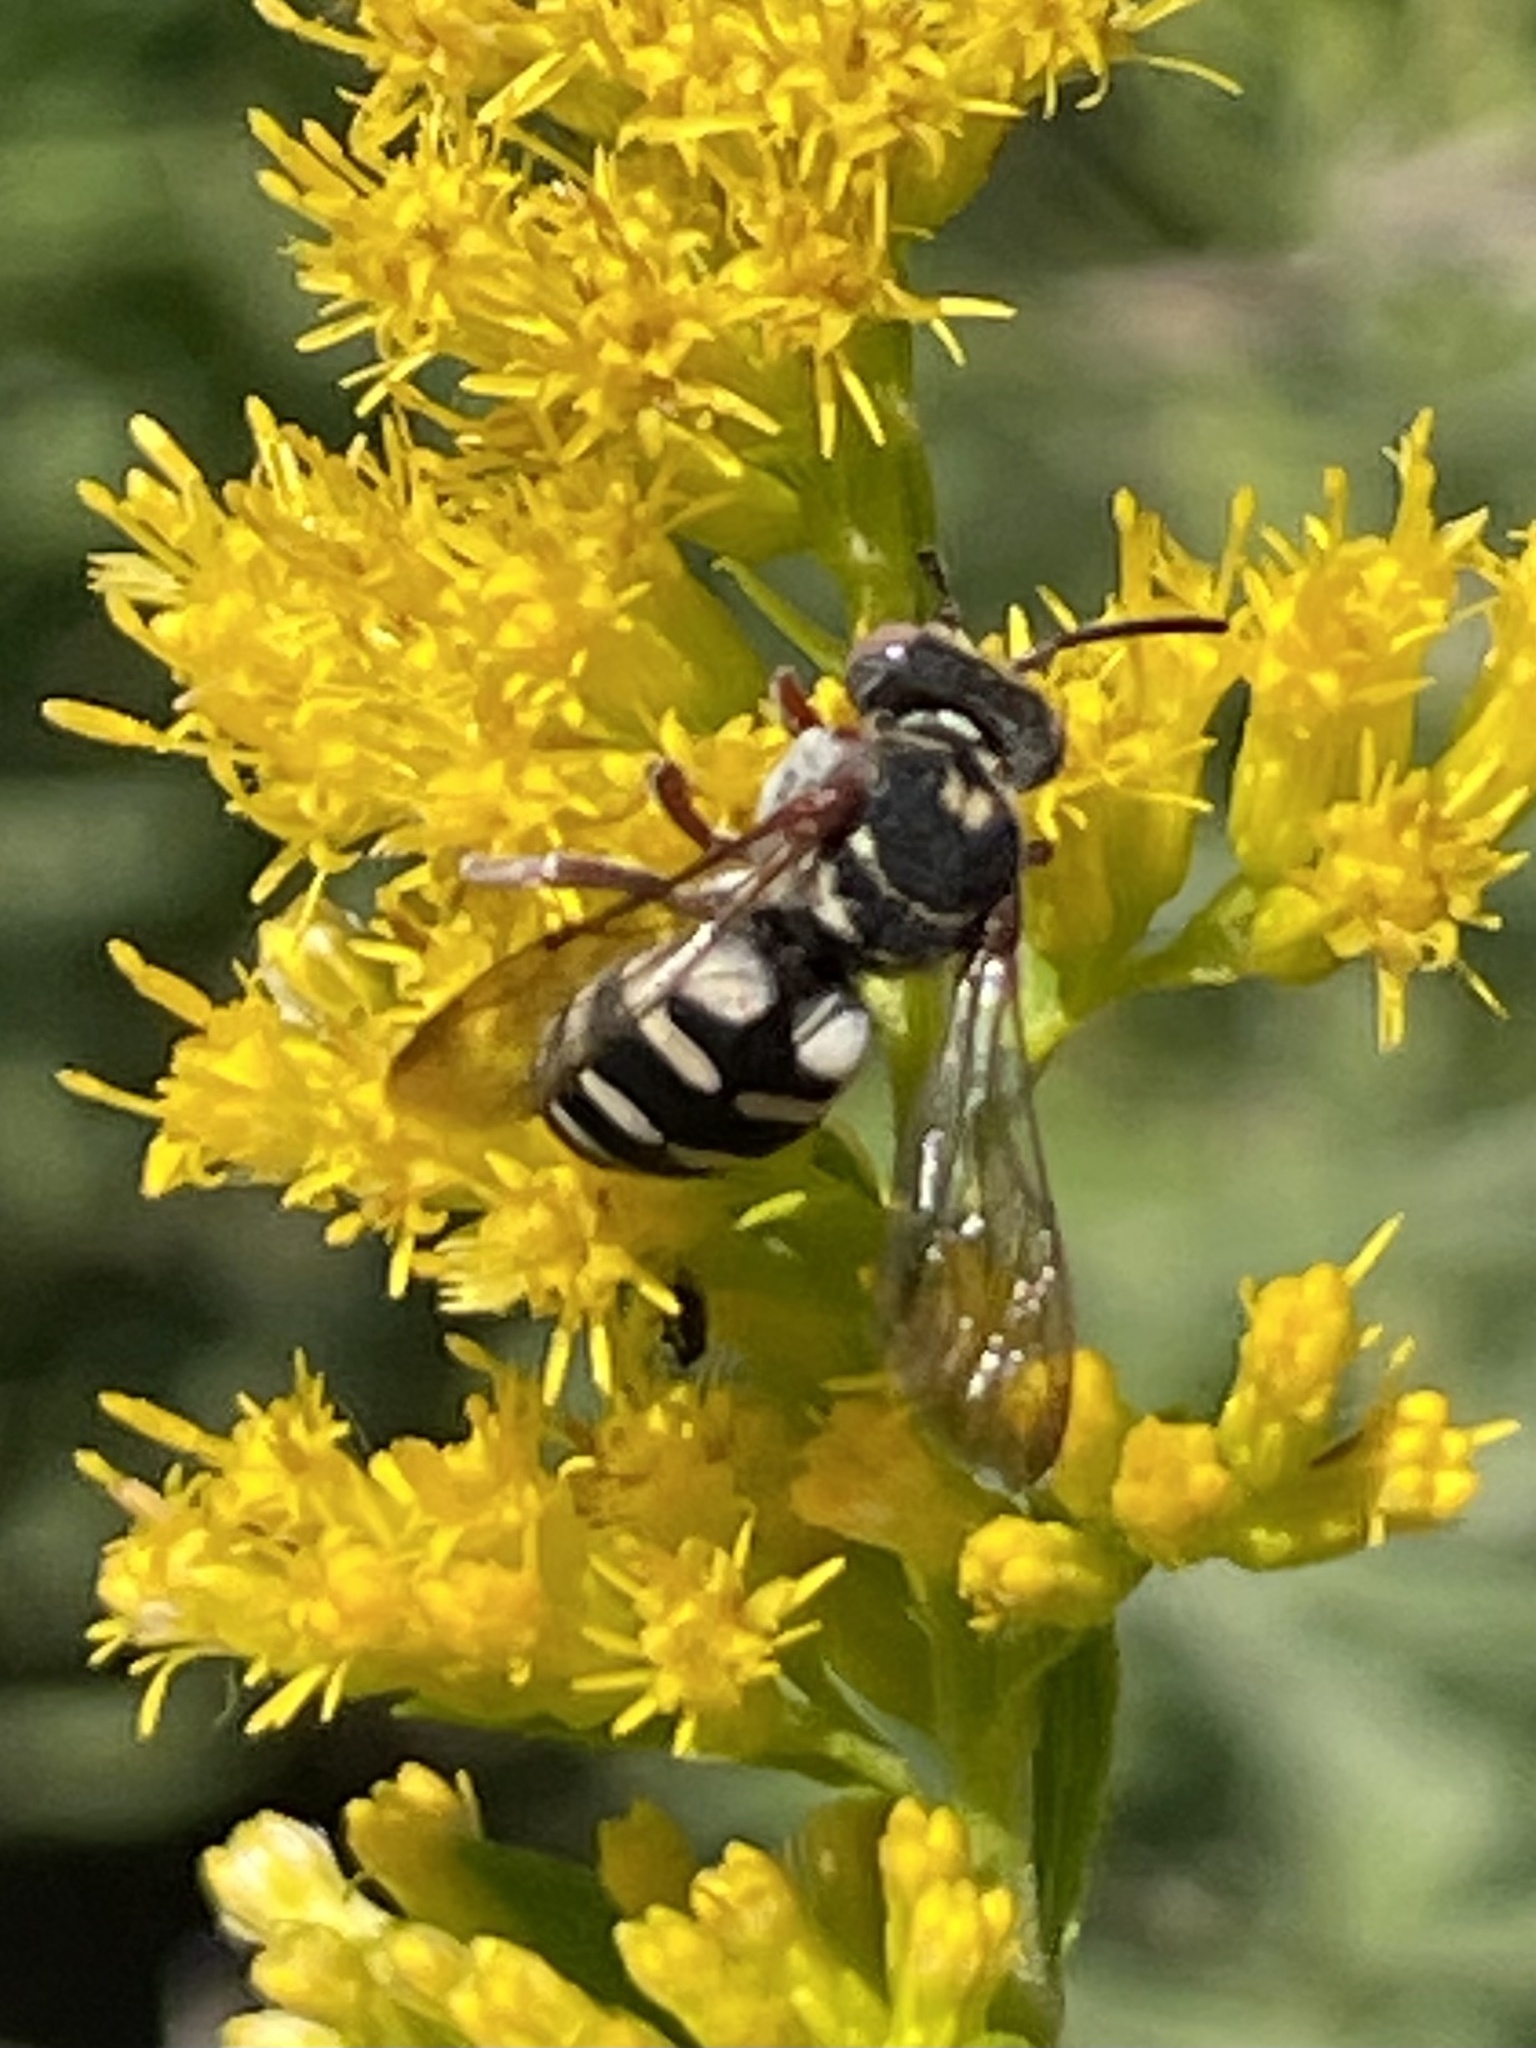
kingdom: Animalia
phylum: Arthropoda
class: Insecta
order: Hymenoptera
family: Apidae
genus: Epeolus
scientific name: Epeolus compactus
